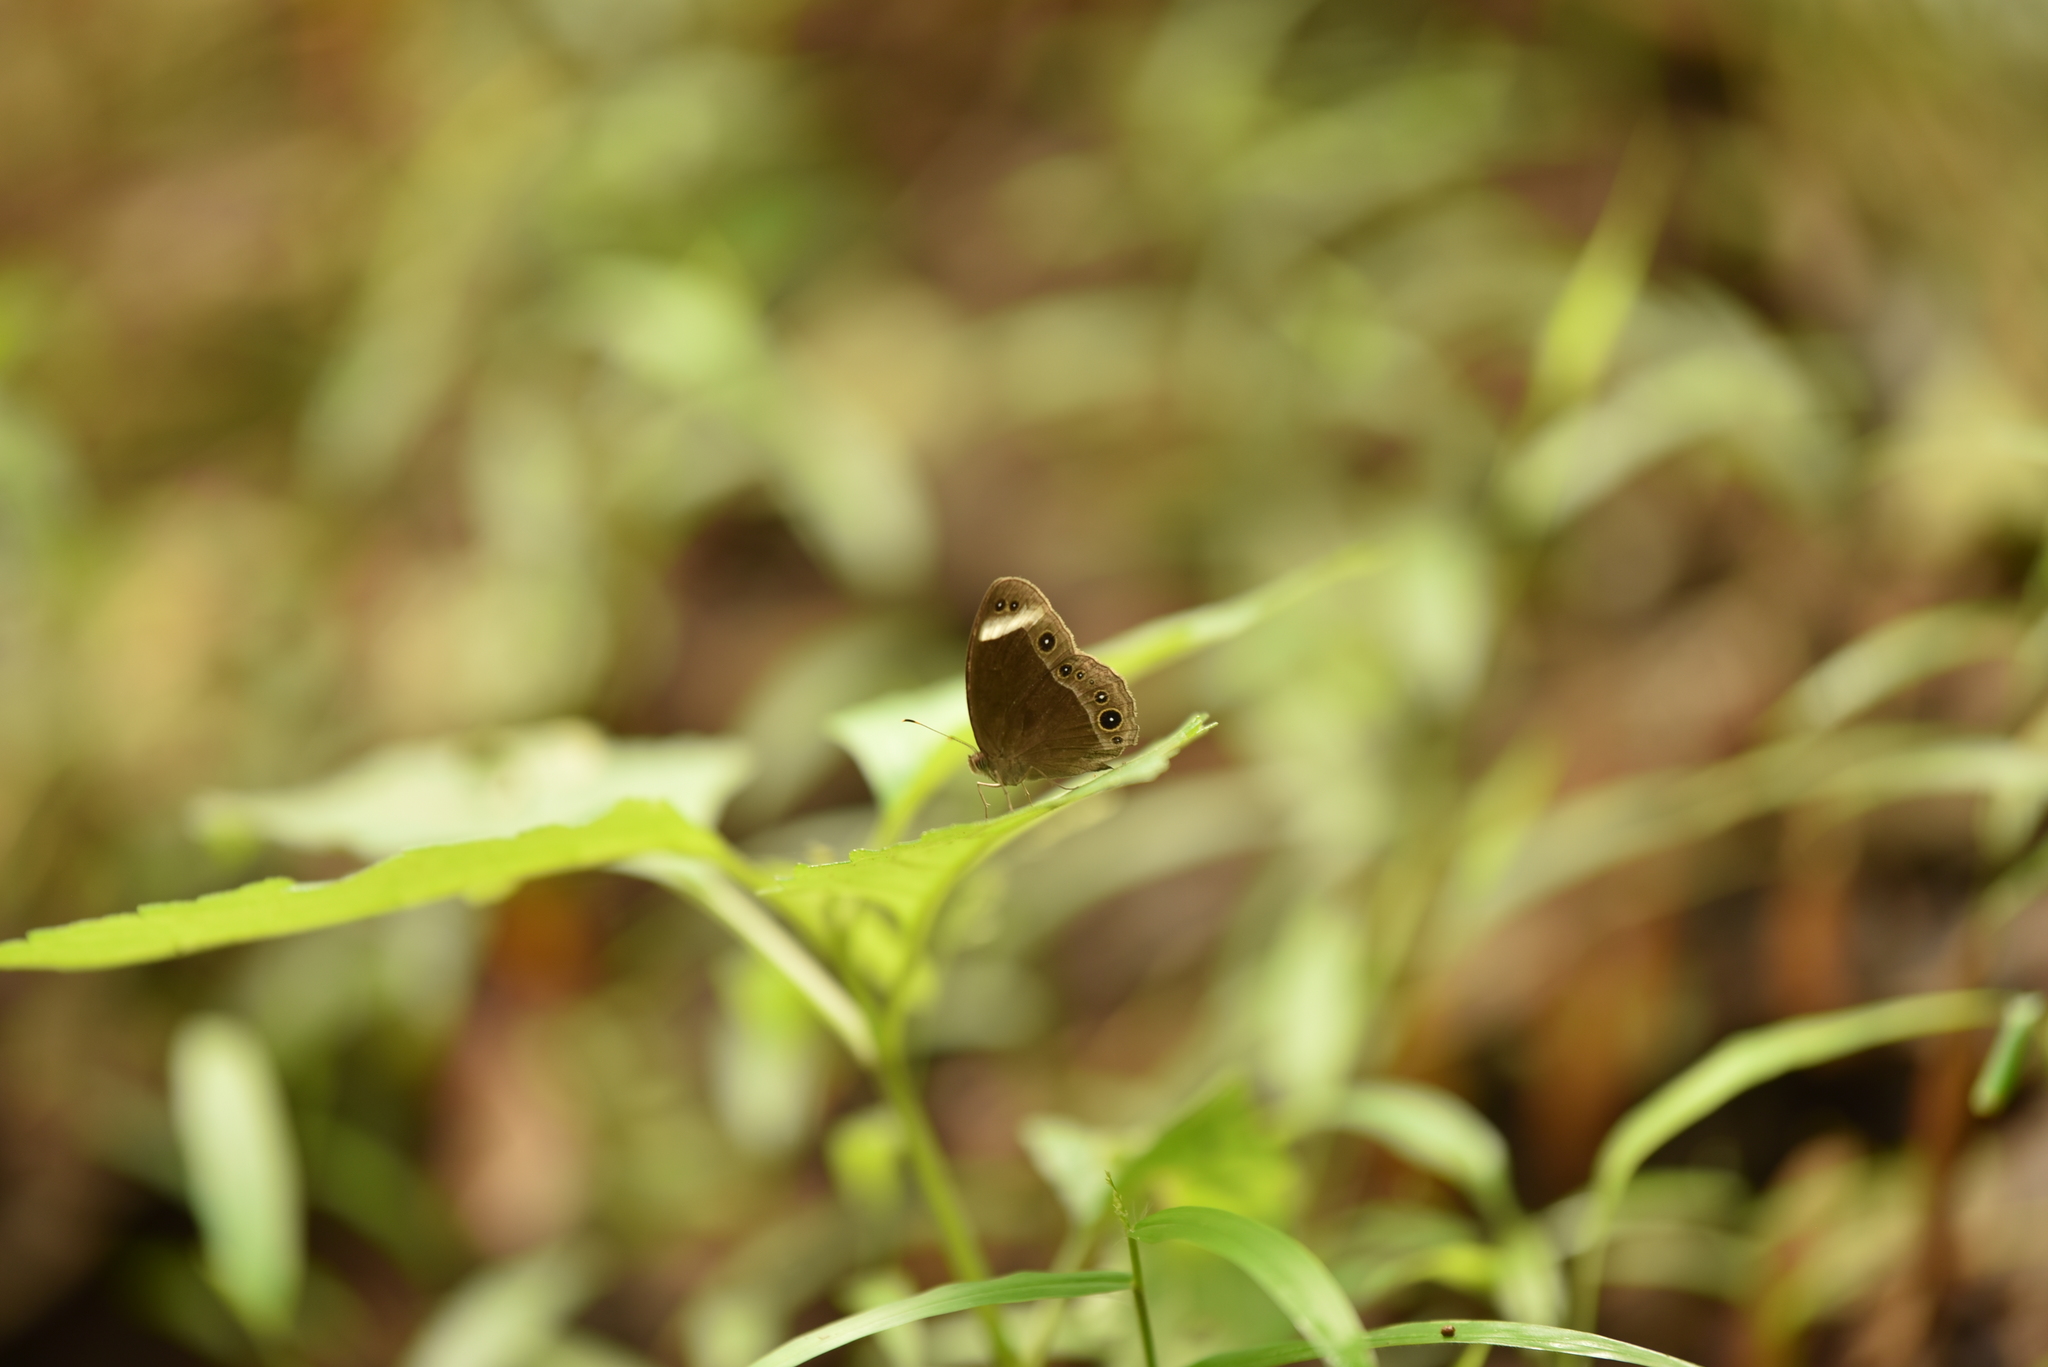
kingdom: Animalia
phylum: Arthropoda
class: Insecta
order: Lepidoptera
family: Nymphalidae
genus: Mycalesis
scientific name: Mycalesis anaxias
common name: White-bar bushbrown
